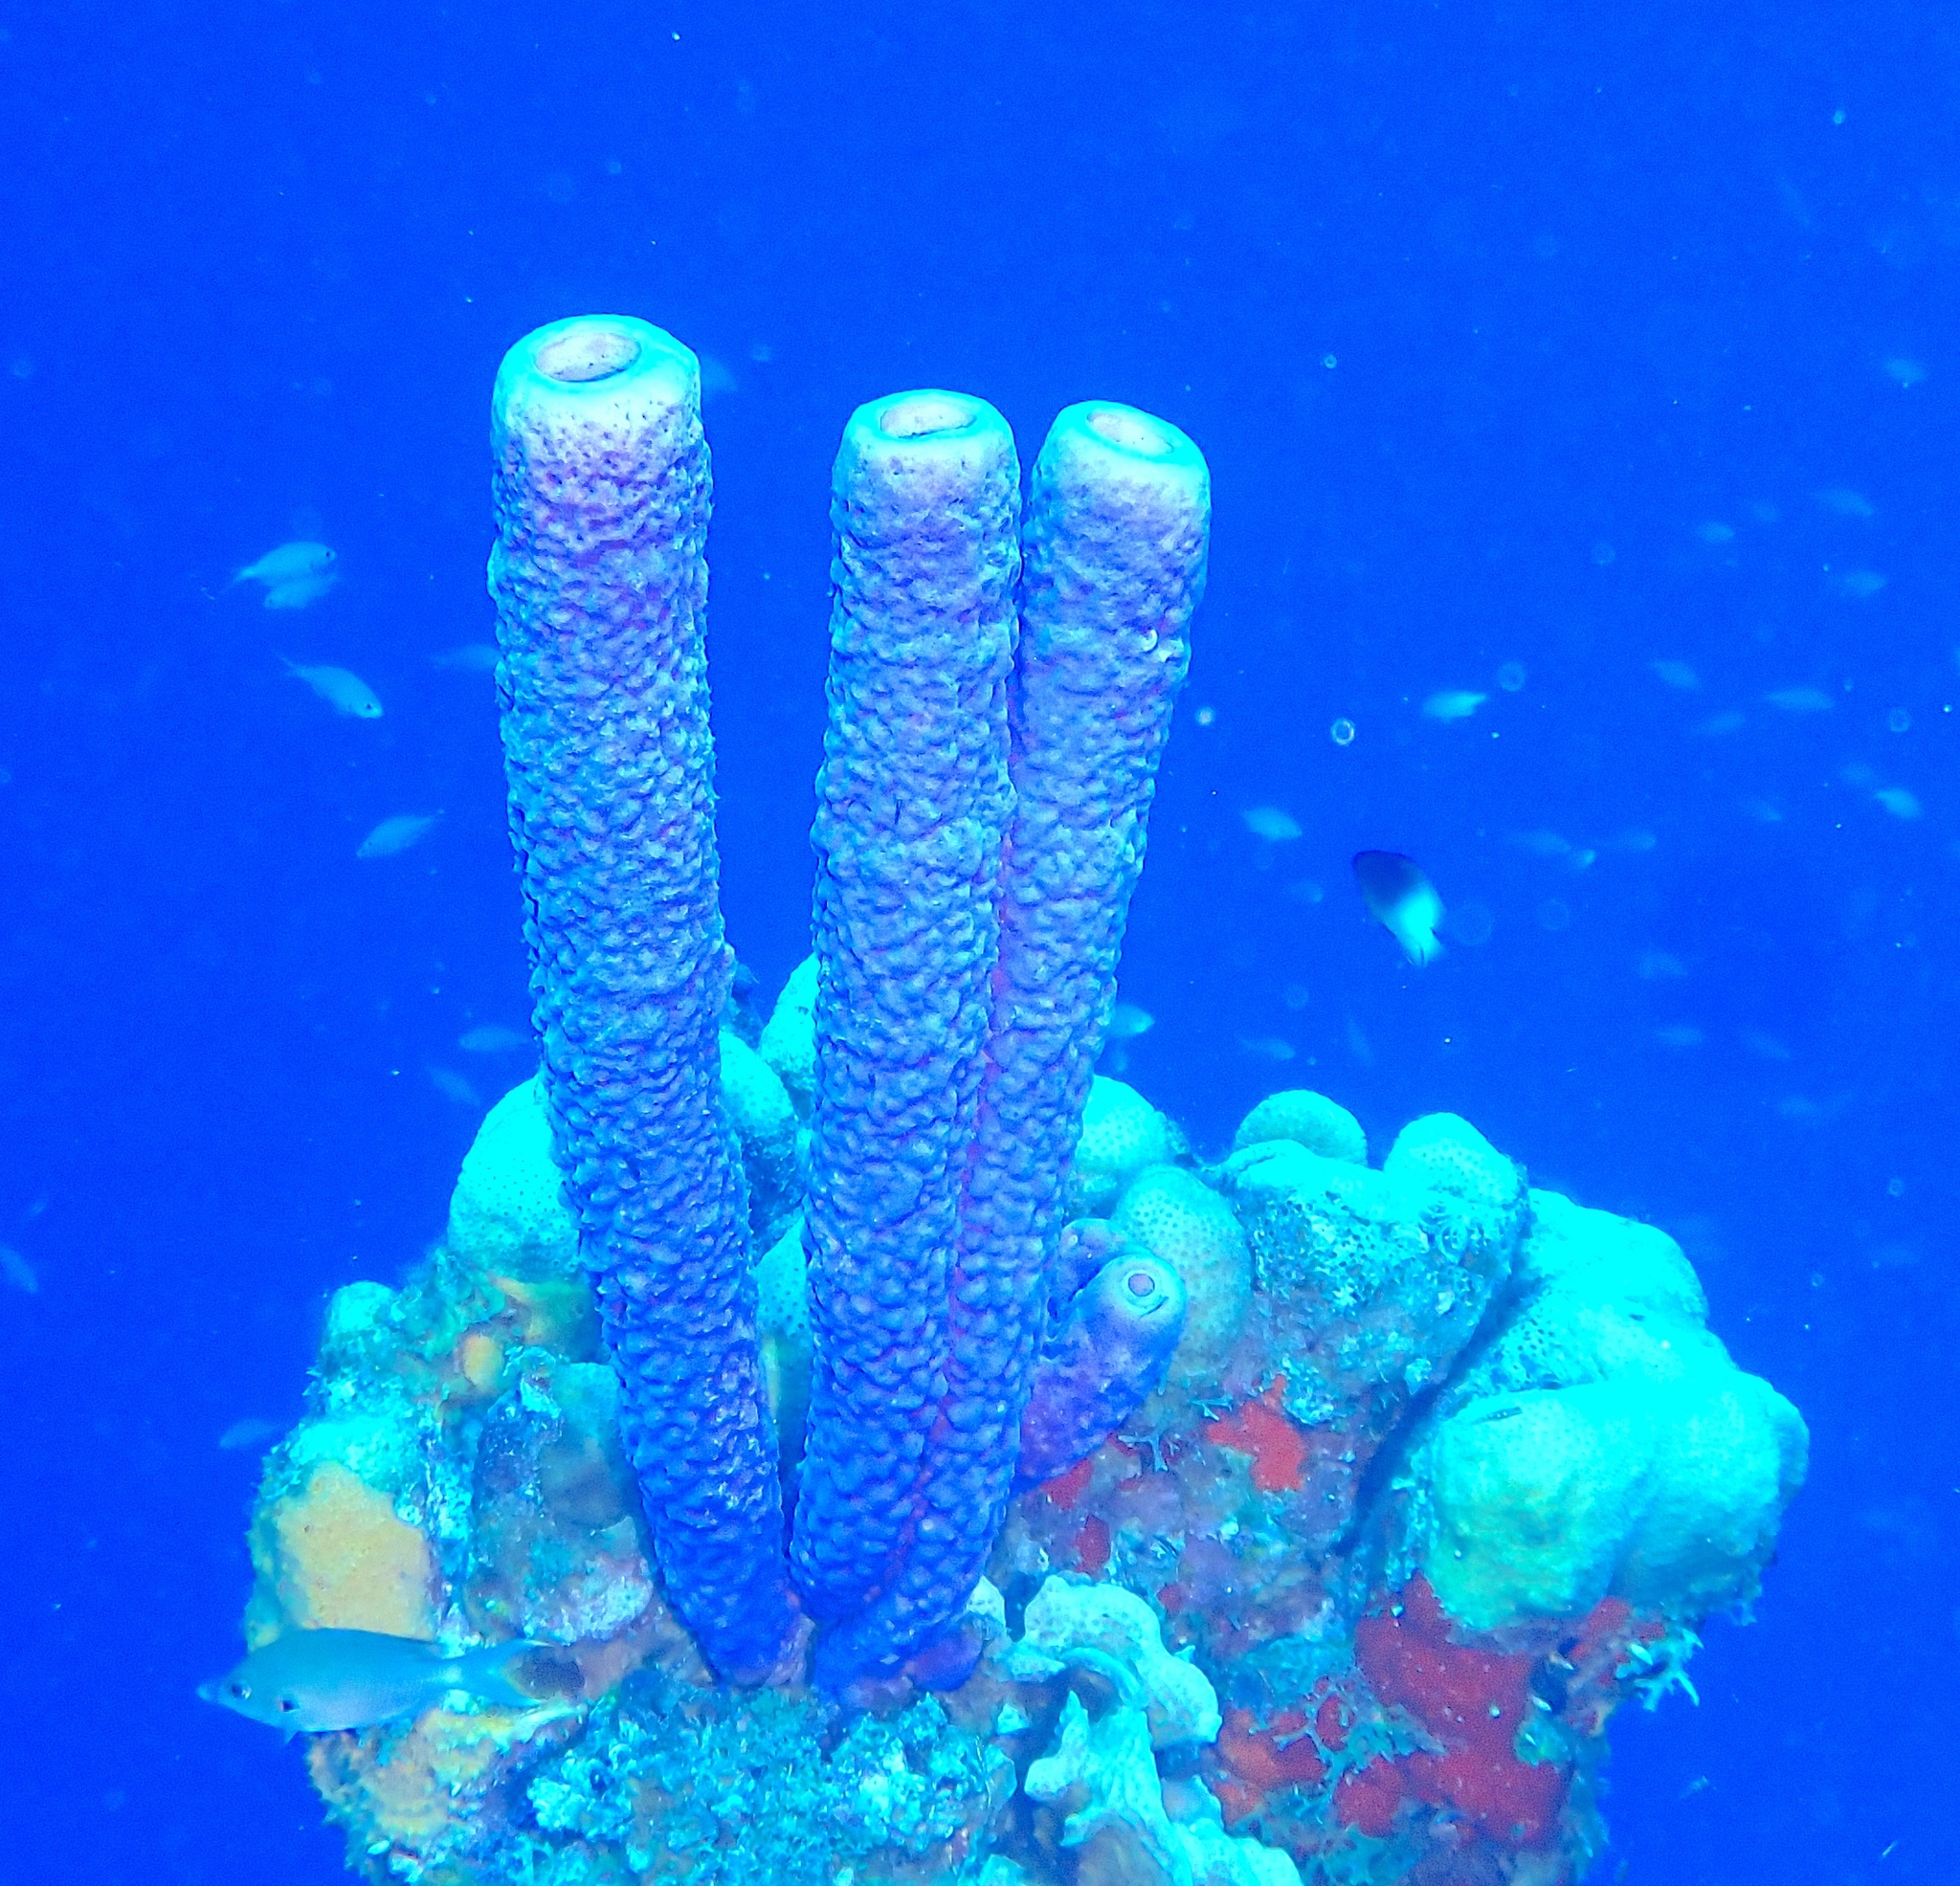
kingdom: Animalia
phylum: Porifera
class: Demospongiae
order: Verongiida
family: Aplysinidae
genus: Aplysina
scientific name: Aplysina archeri
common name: Stove-pipe sponge
